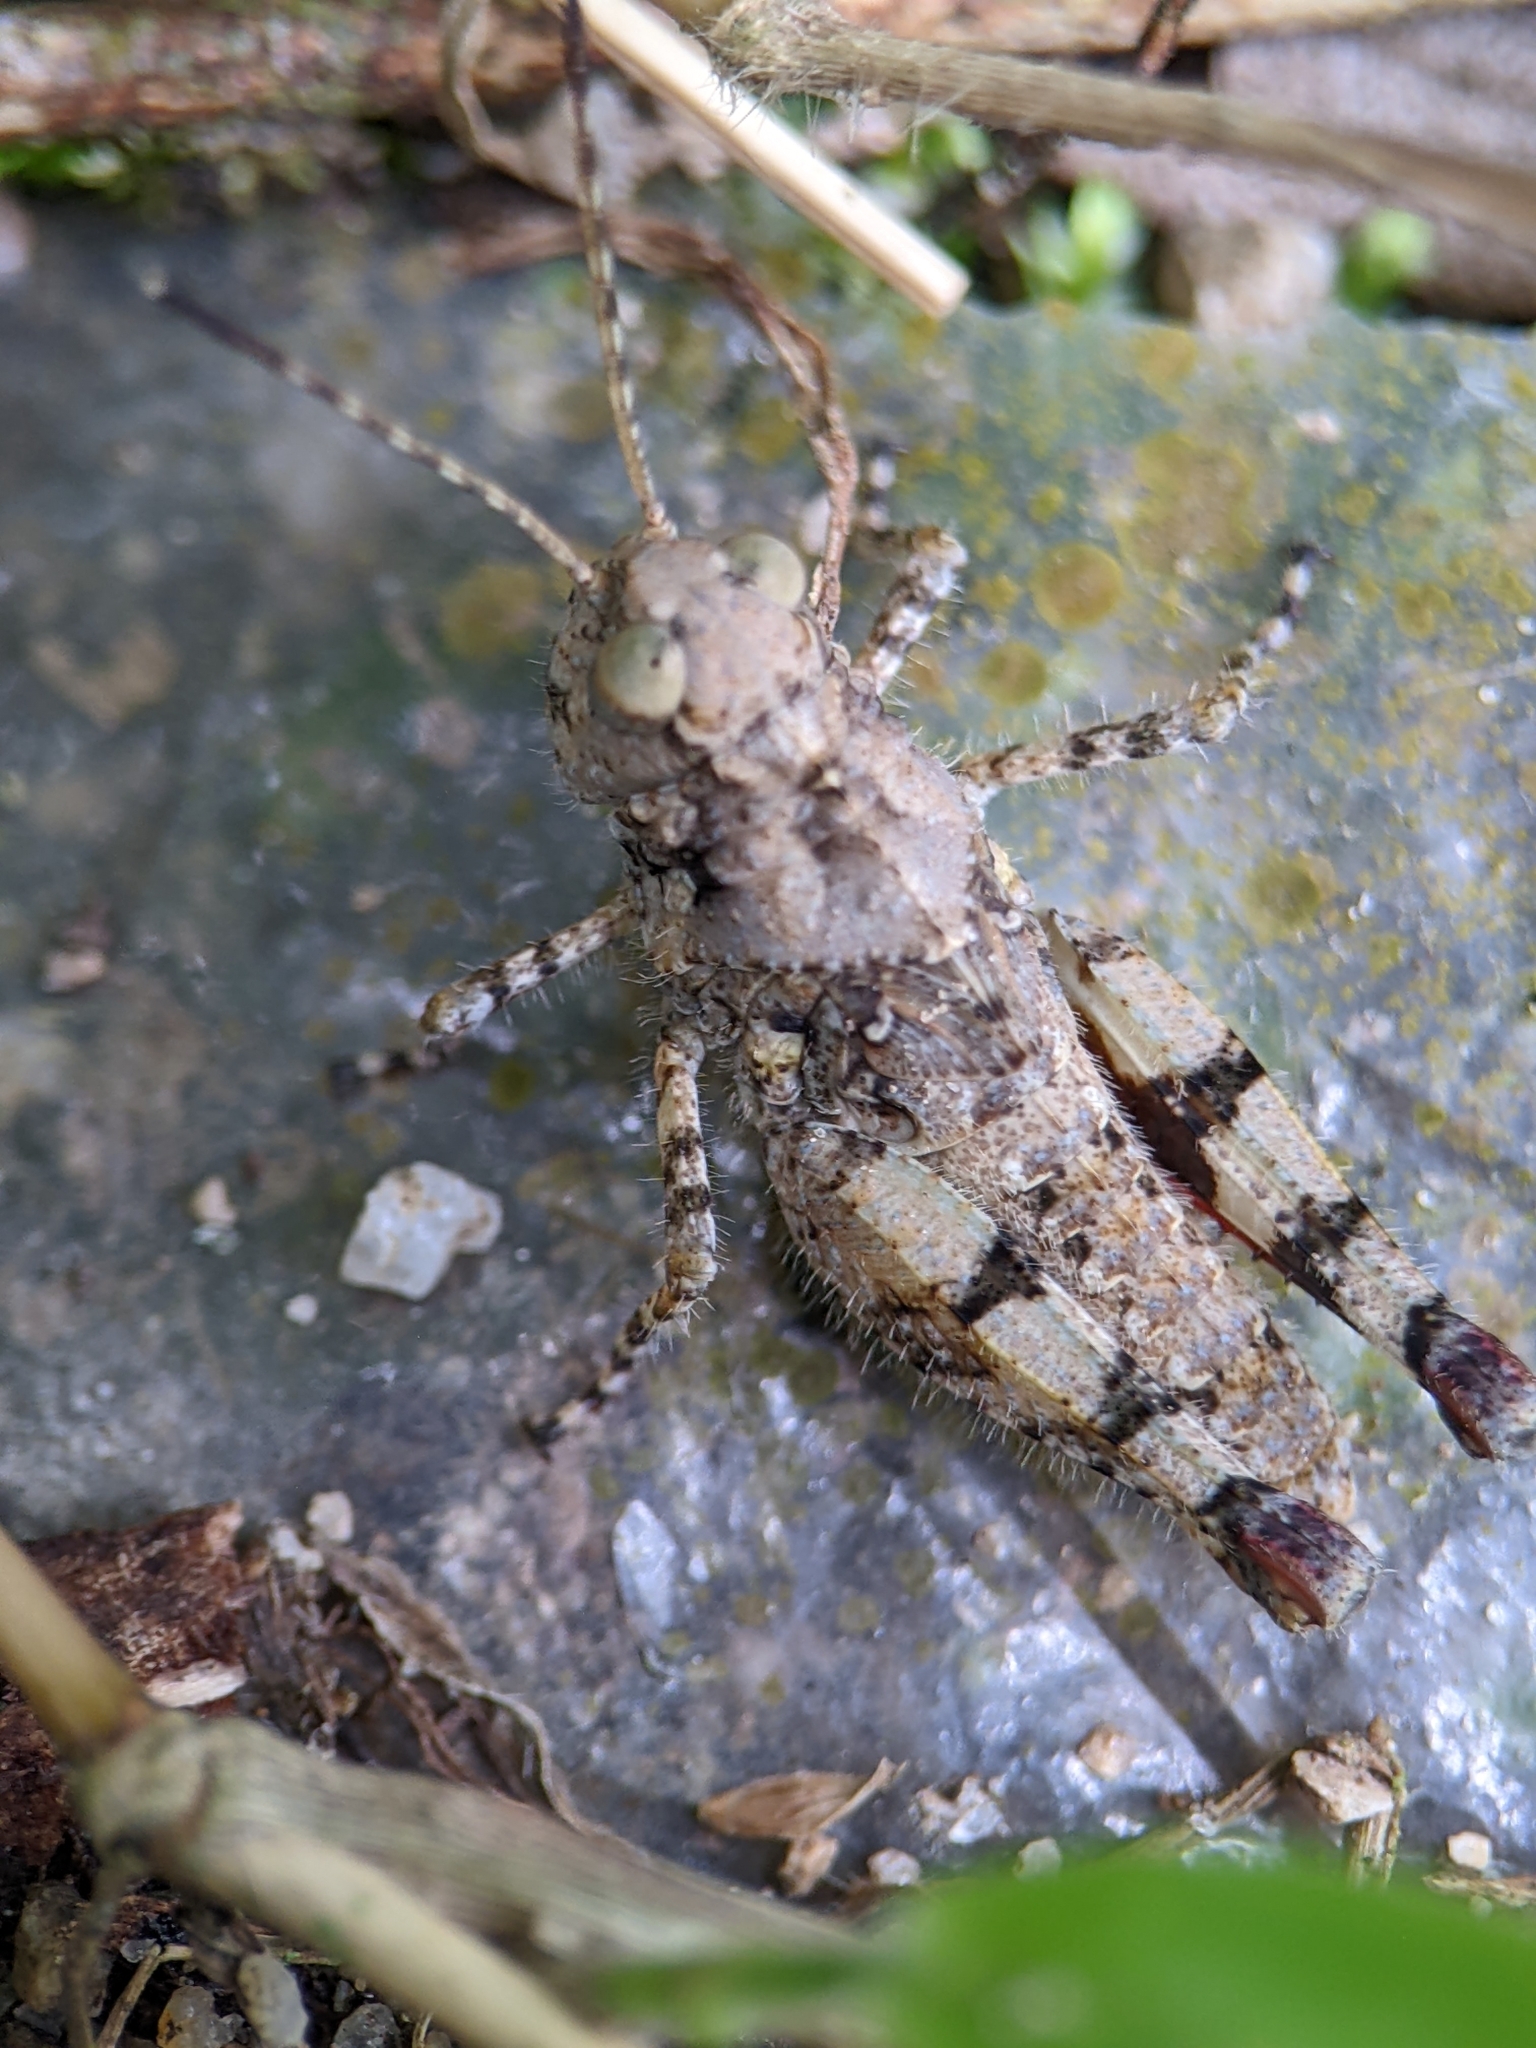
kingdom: Animalia
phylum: Arthropoda
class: Insecta
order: Orthoptera
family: Acrididae
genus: Trilophidia
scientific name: Trilophidia annulata
